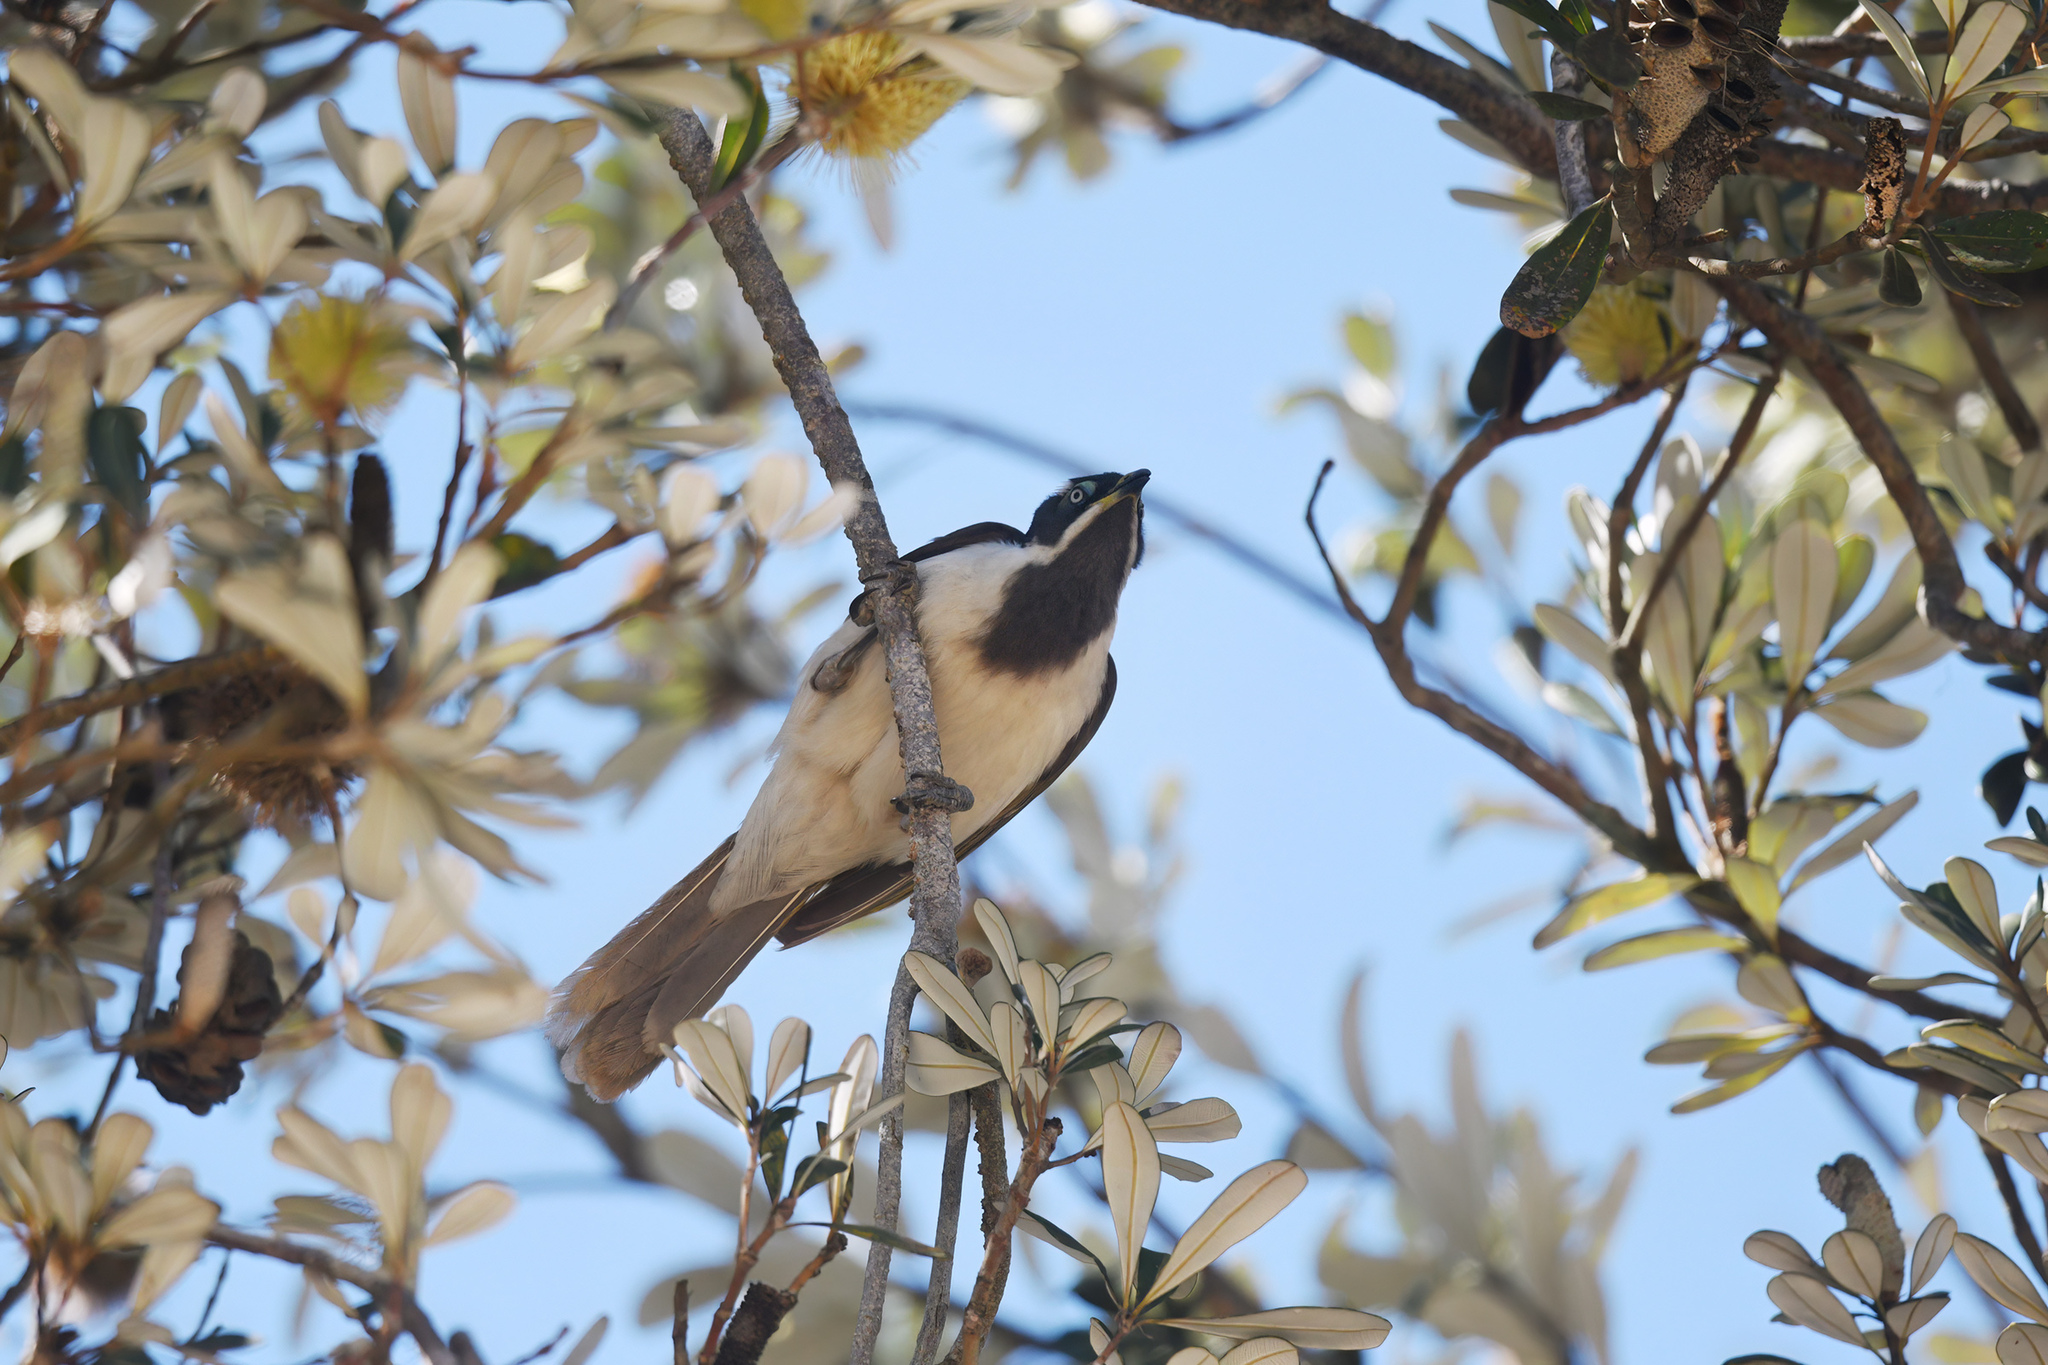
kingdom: Animalia
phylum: Chordata
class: Aves
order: Passeriformes
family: Meliphagidae
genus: Entomyzon
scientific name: Entomyzon cyanotis
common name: Blue-faced honeyeater
